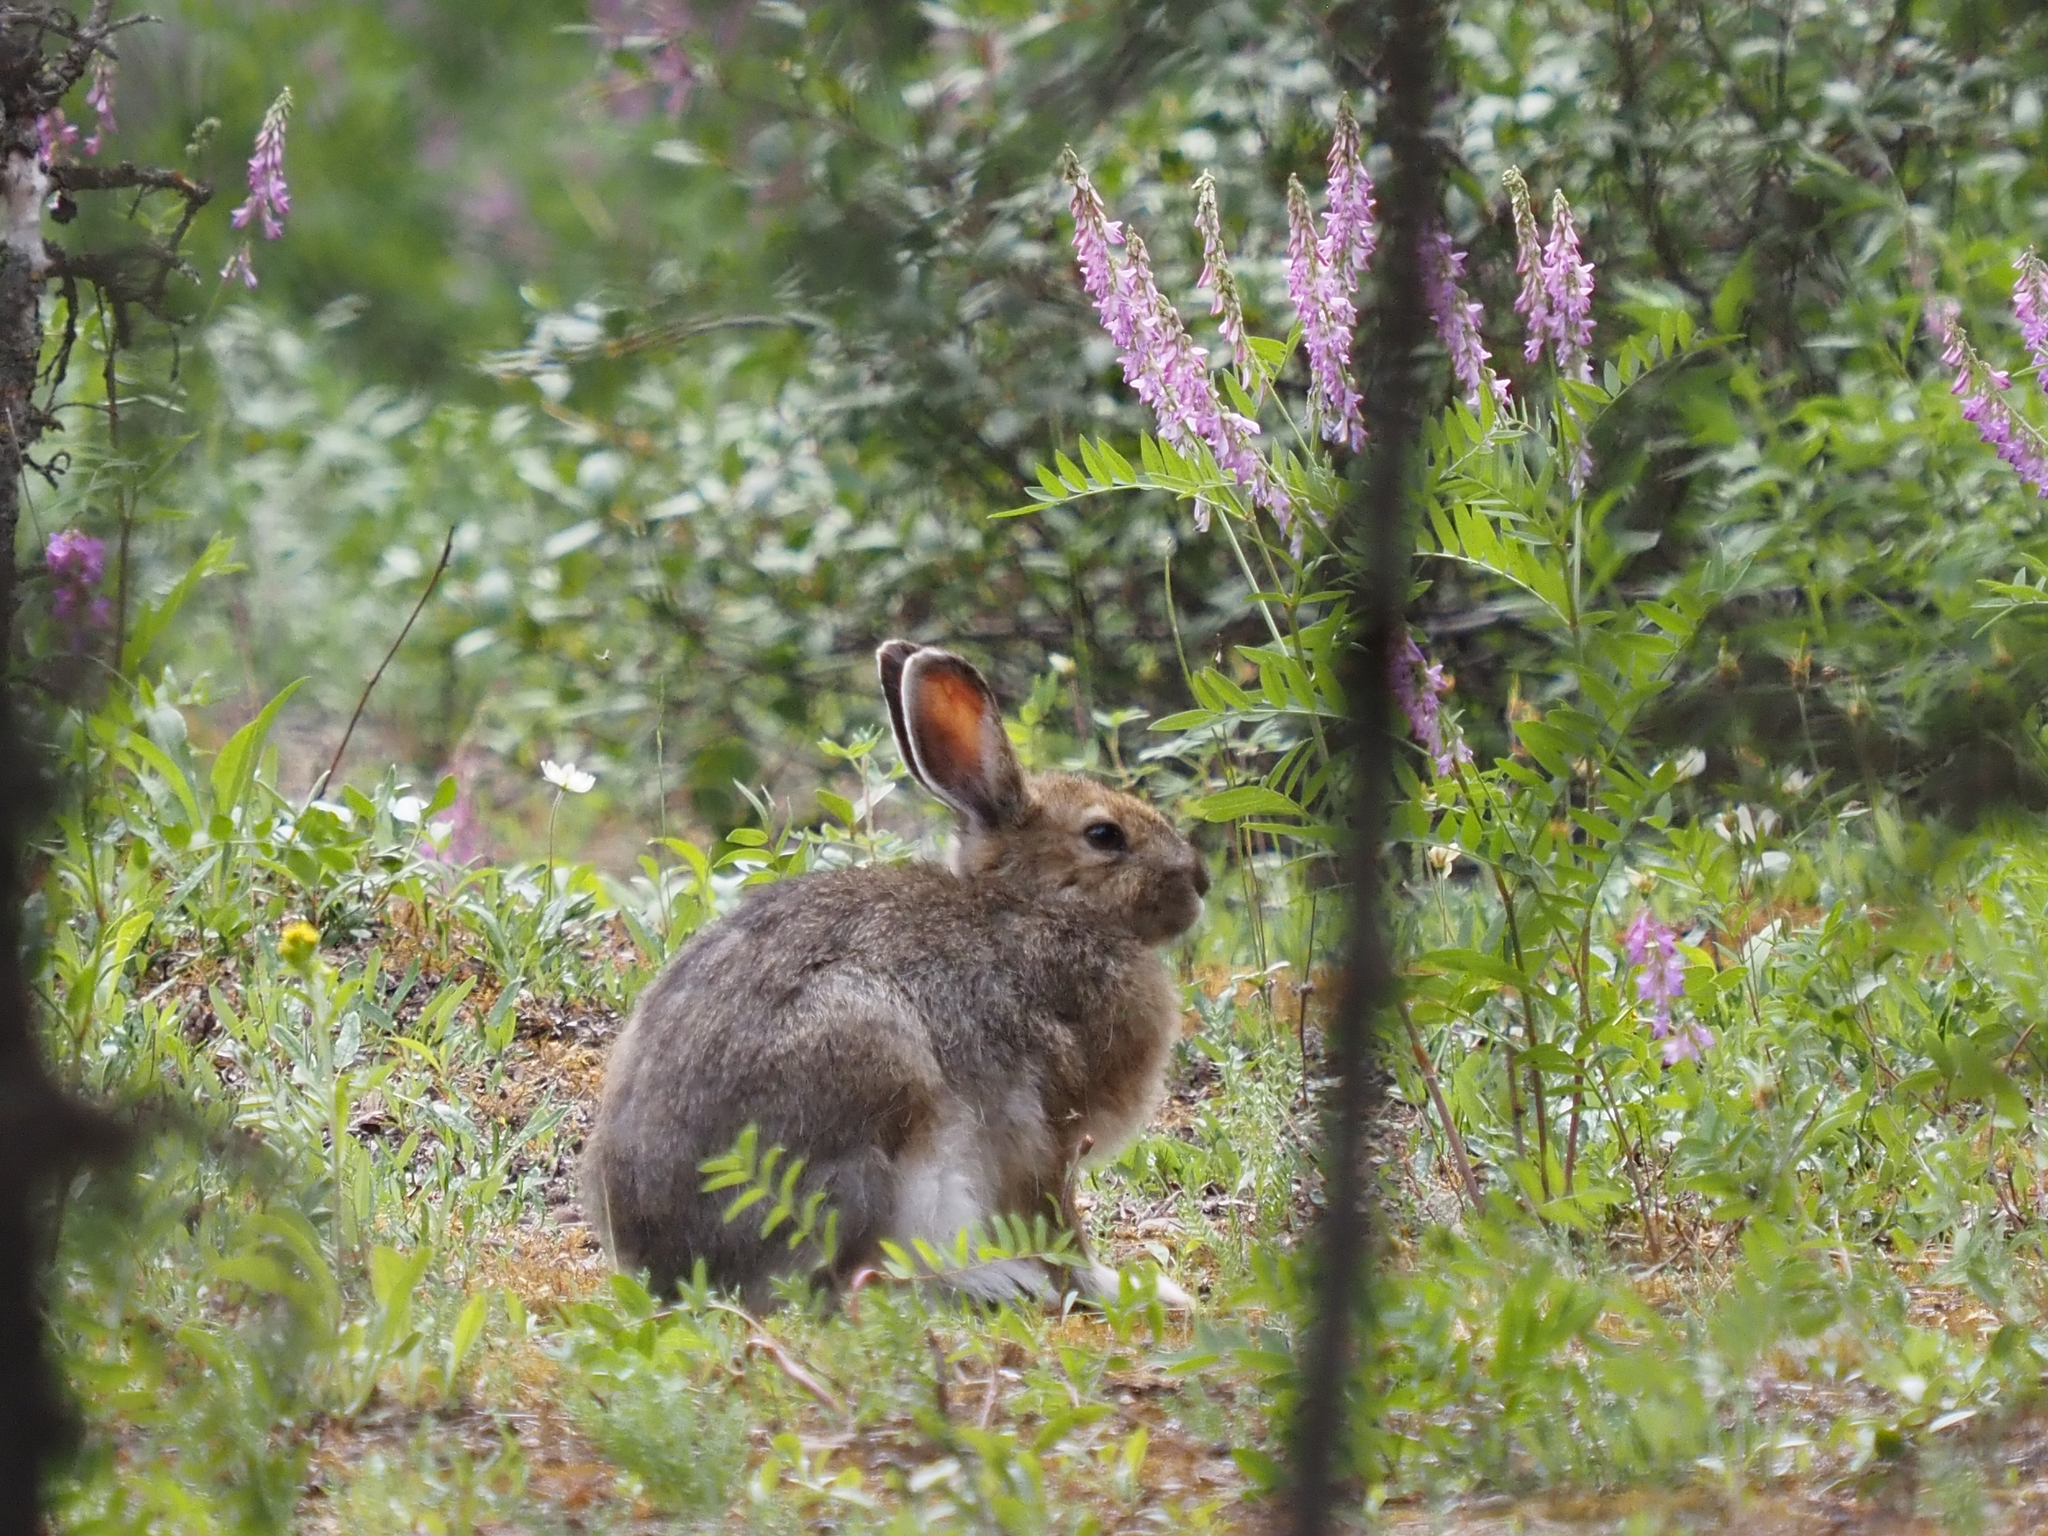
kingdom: Animalia
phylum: Chordata
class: Mammalia
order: Lagomorpha
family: Leporidae
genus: Lepus
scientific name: Lepus americanus
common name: Snowshoe hare
